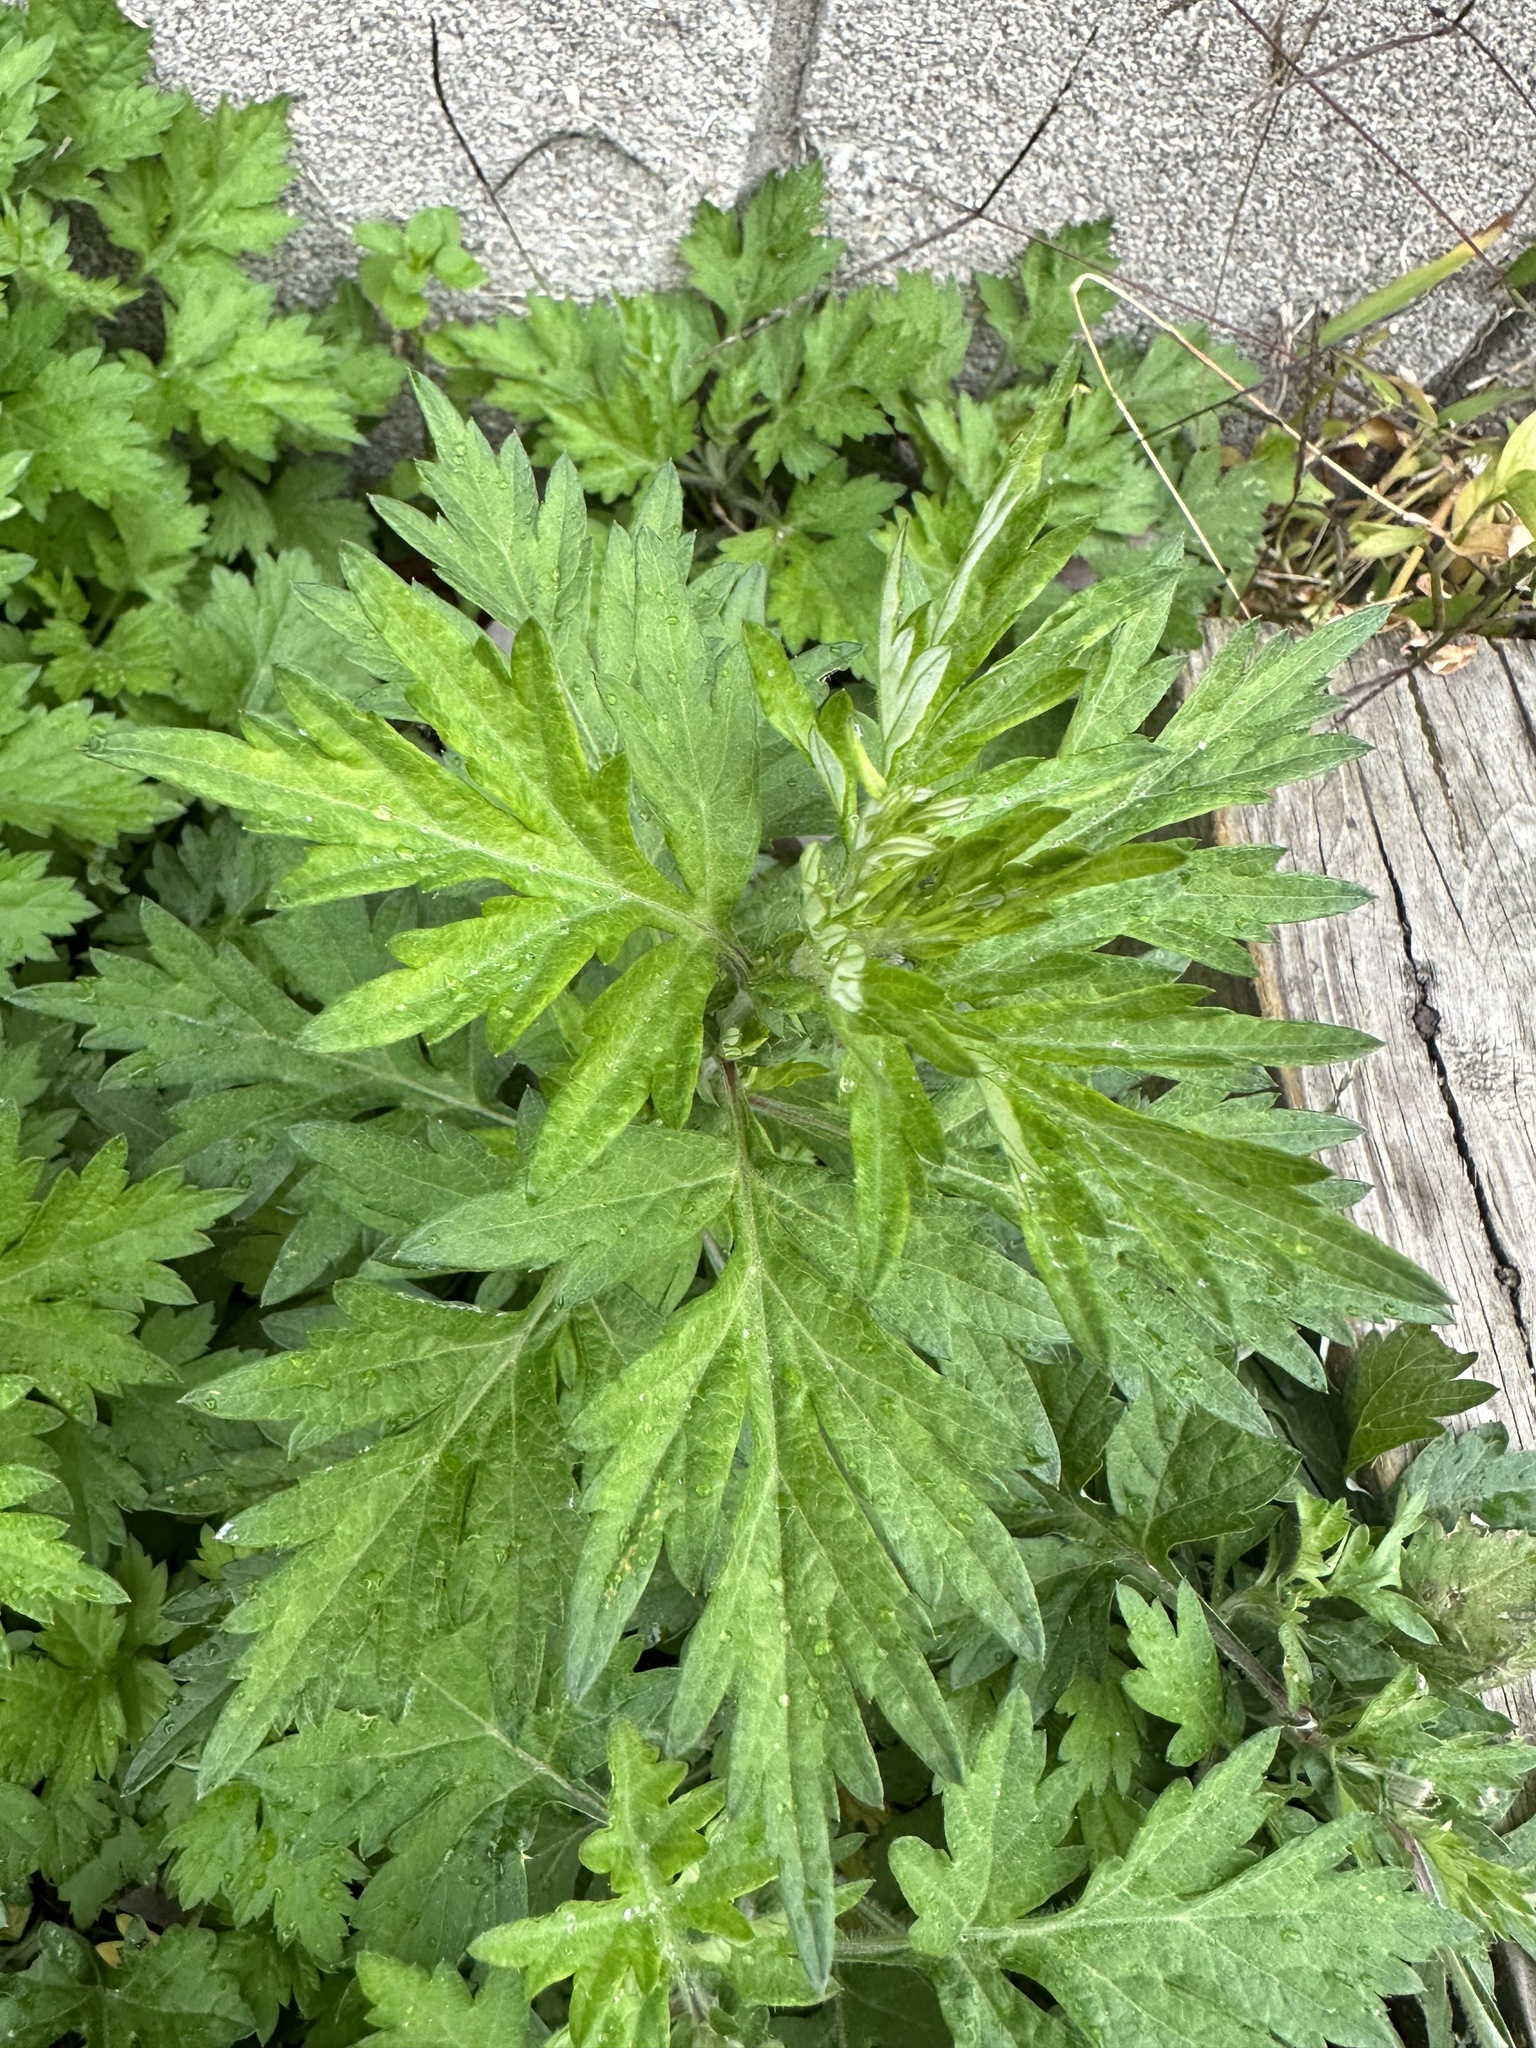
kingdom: Plantae
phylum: Tracheophyta
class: Magnoliopsida
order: Asterales
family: Asteraceae
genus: Artemisia
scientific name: Artemisia vulgaris
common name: Mugwort
